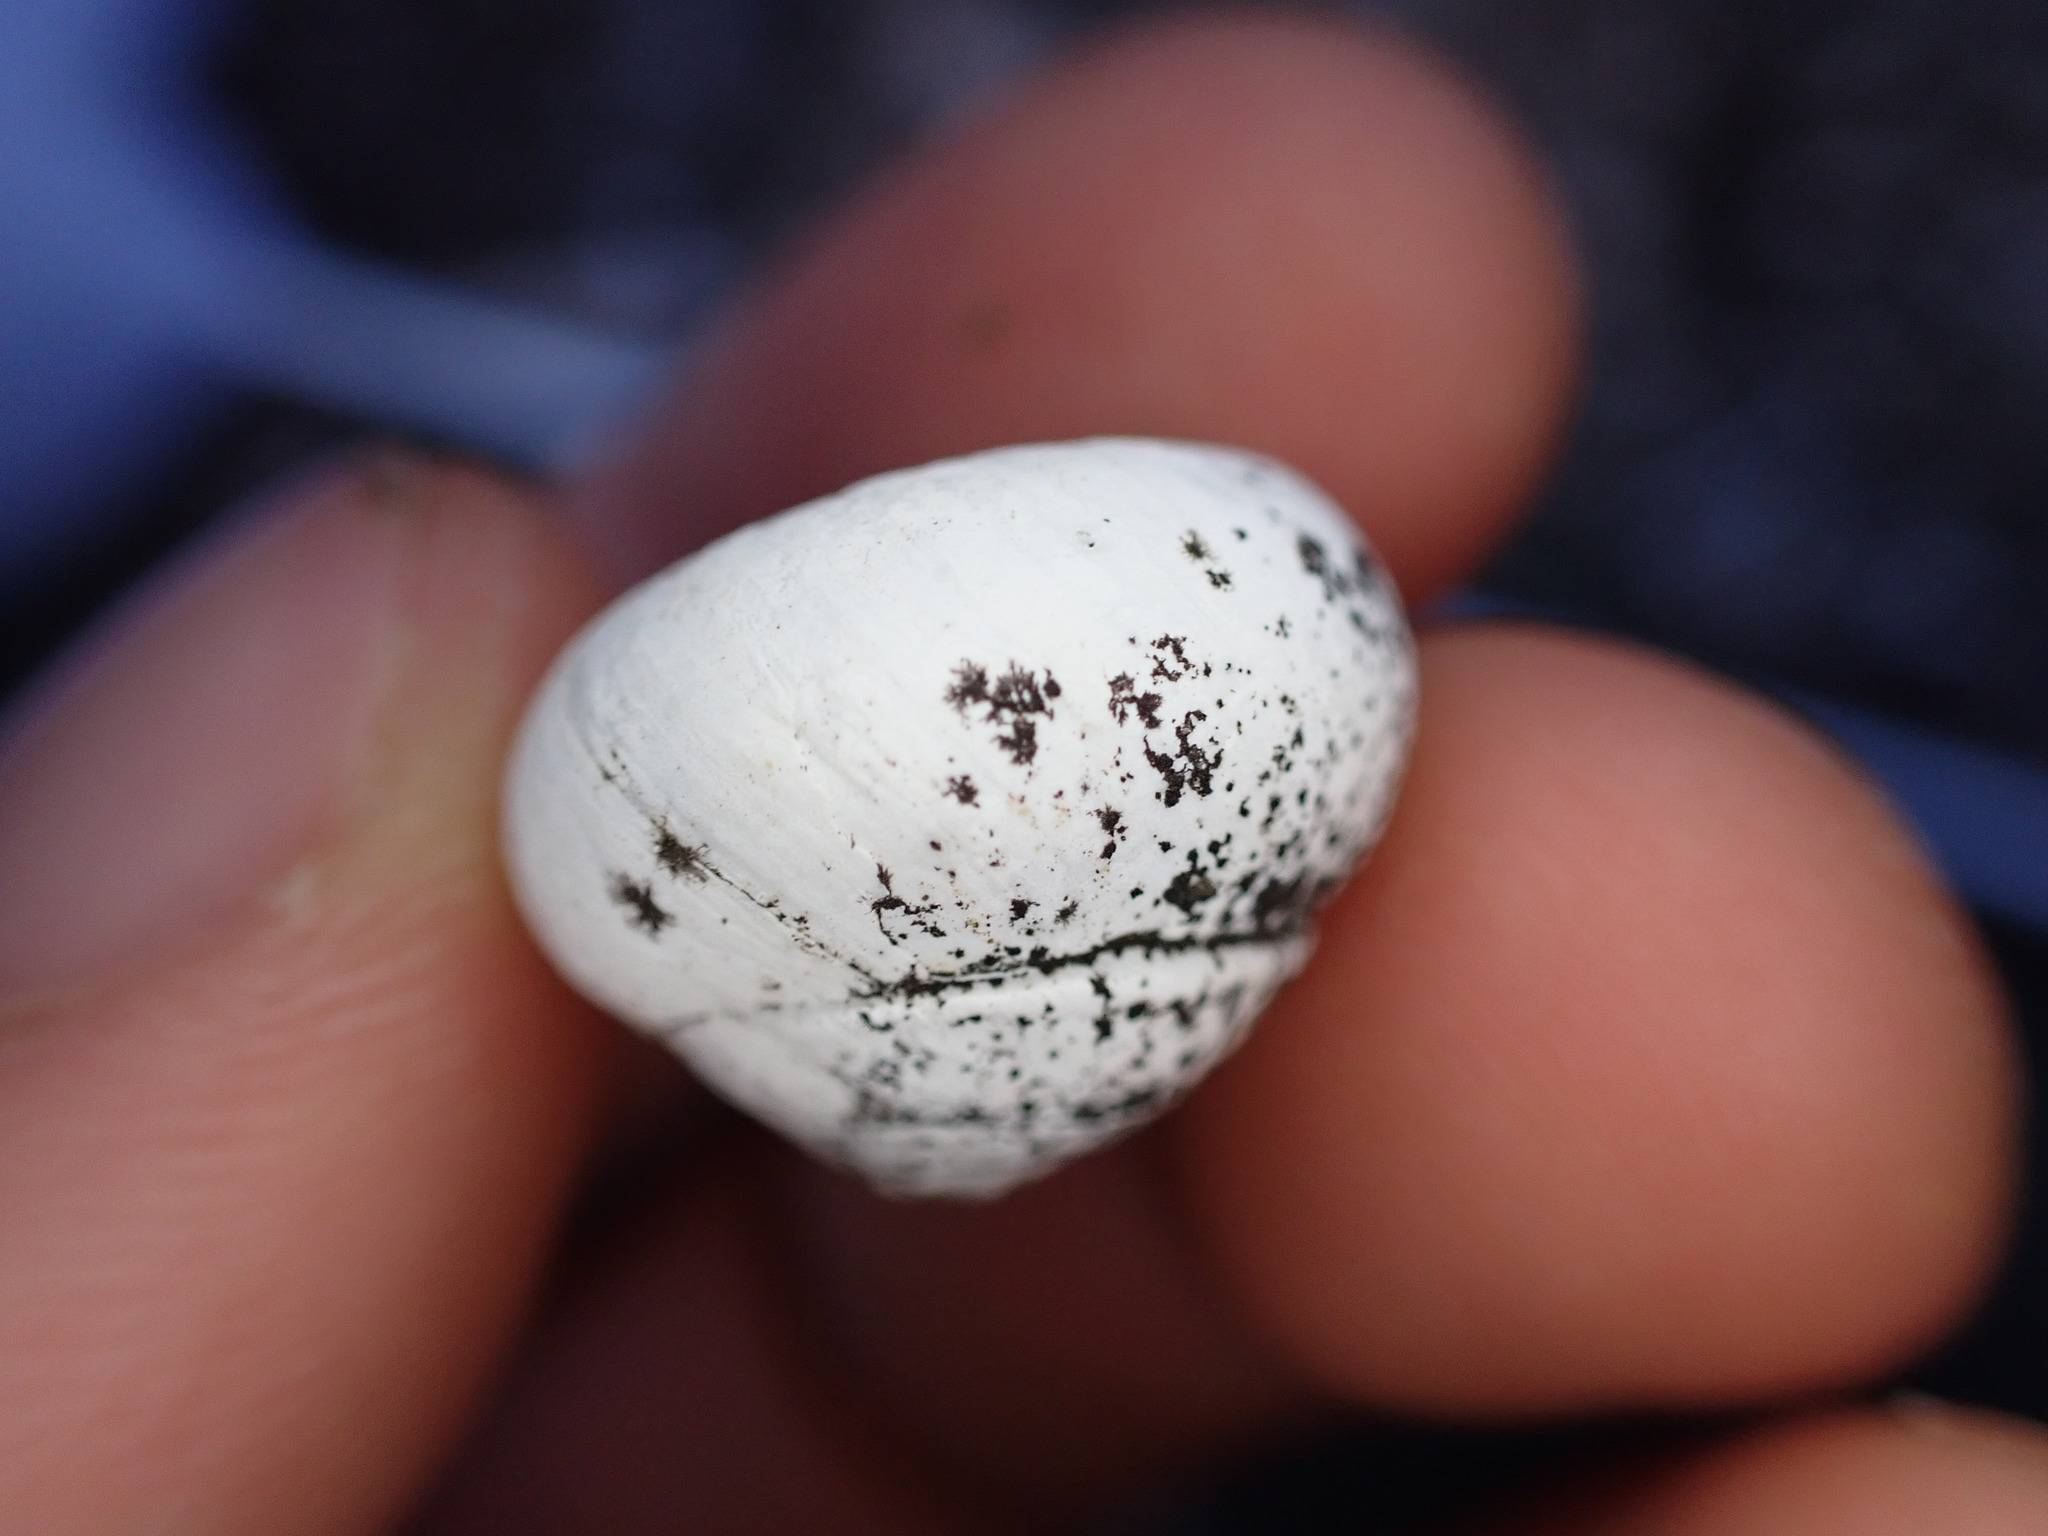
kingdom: Animalia
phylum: Mollusca
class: Gastropoda
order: Stylommatophora
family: Sphincterochilidae
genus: Sphincterochila
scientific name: Sphincterochila candidissima
